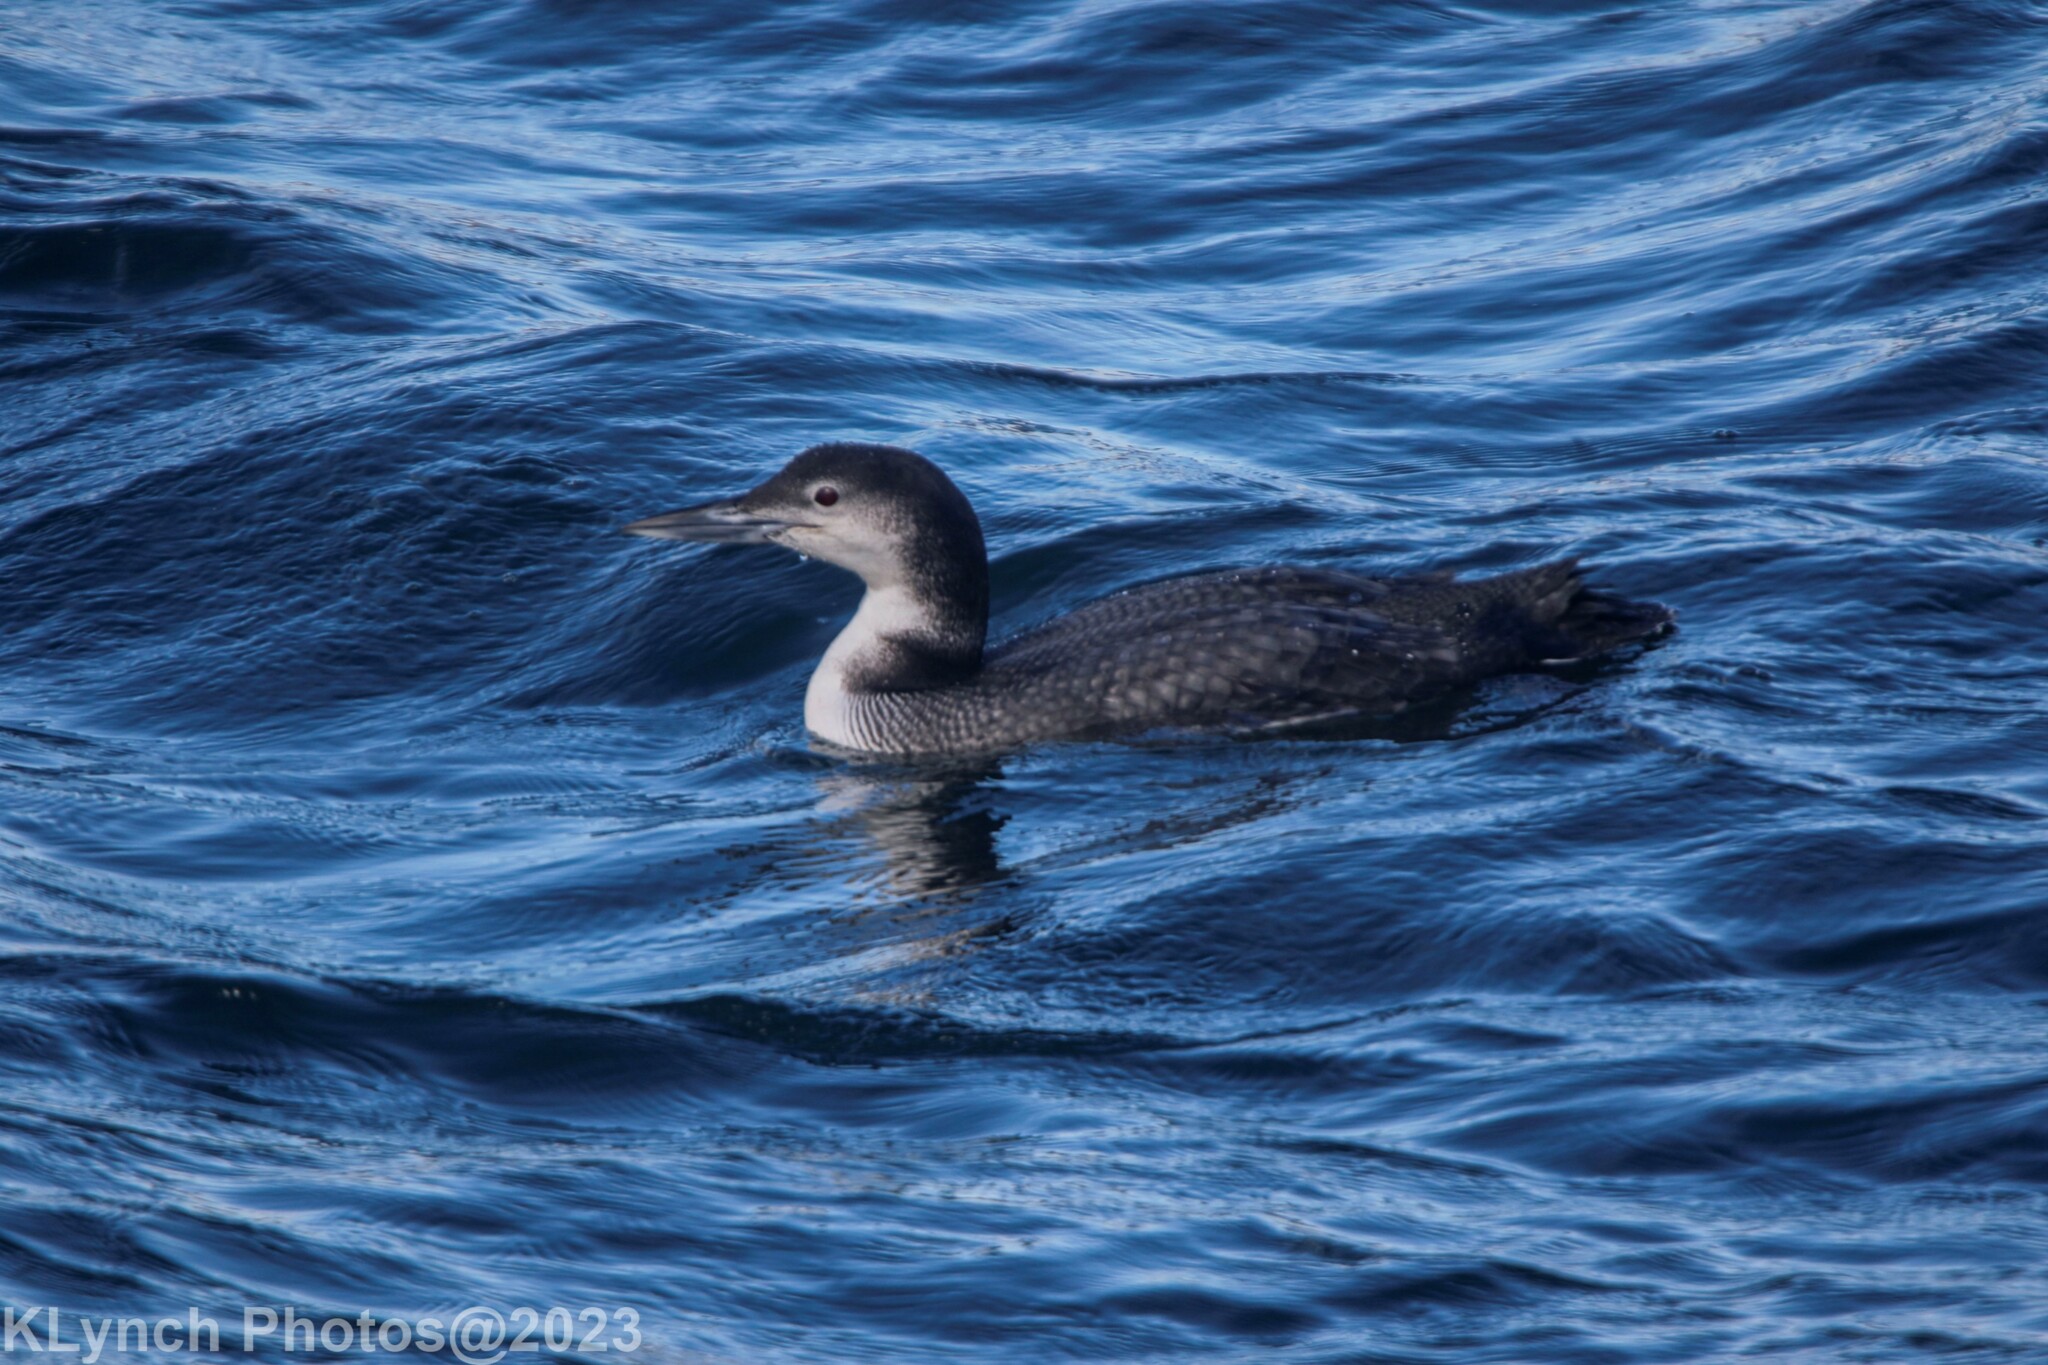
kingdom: Animalia
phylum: Chordata
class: Aves
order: Gaviiformes
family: Gaviidae
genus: Gavia
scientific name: Gavia immer
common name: Common loon
